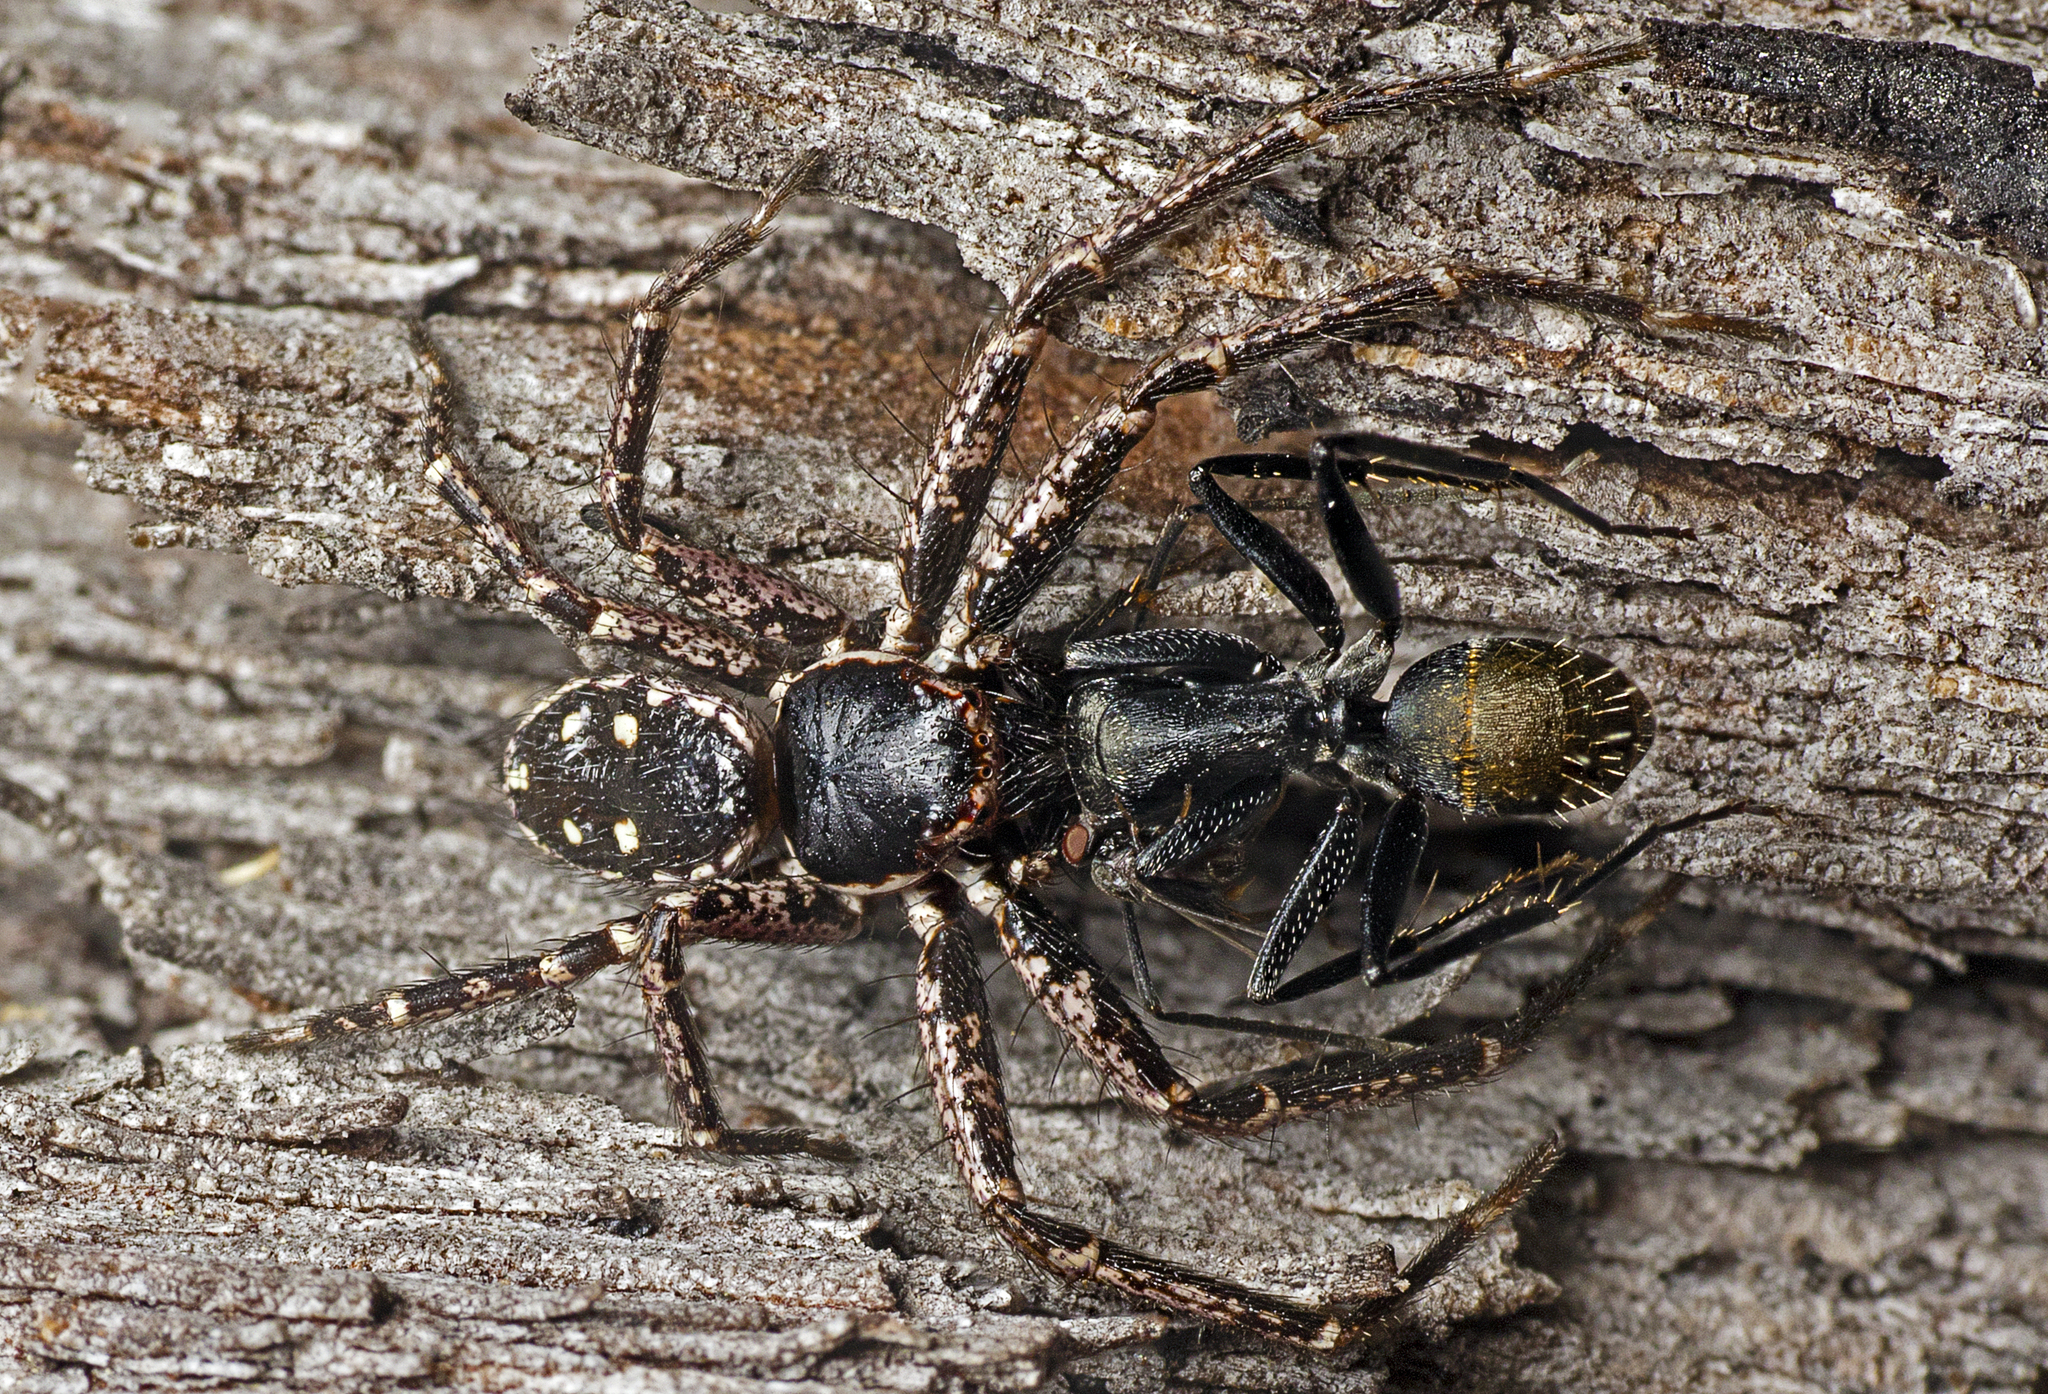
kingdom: Animalia
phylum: Arthropoda
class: Arachnida
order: Araneae
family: Thomisidae
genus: Tharpyna
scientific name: Tharpyna campestrata
